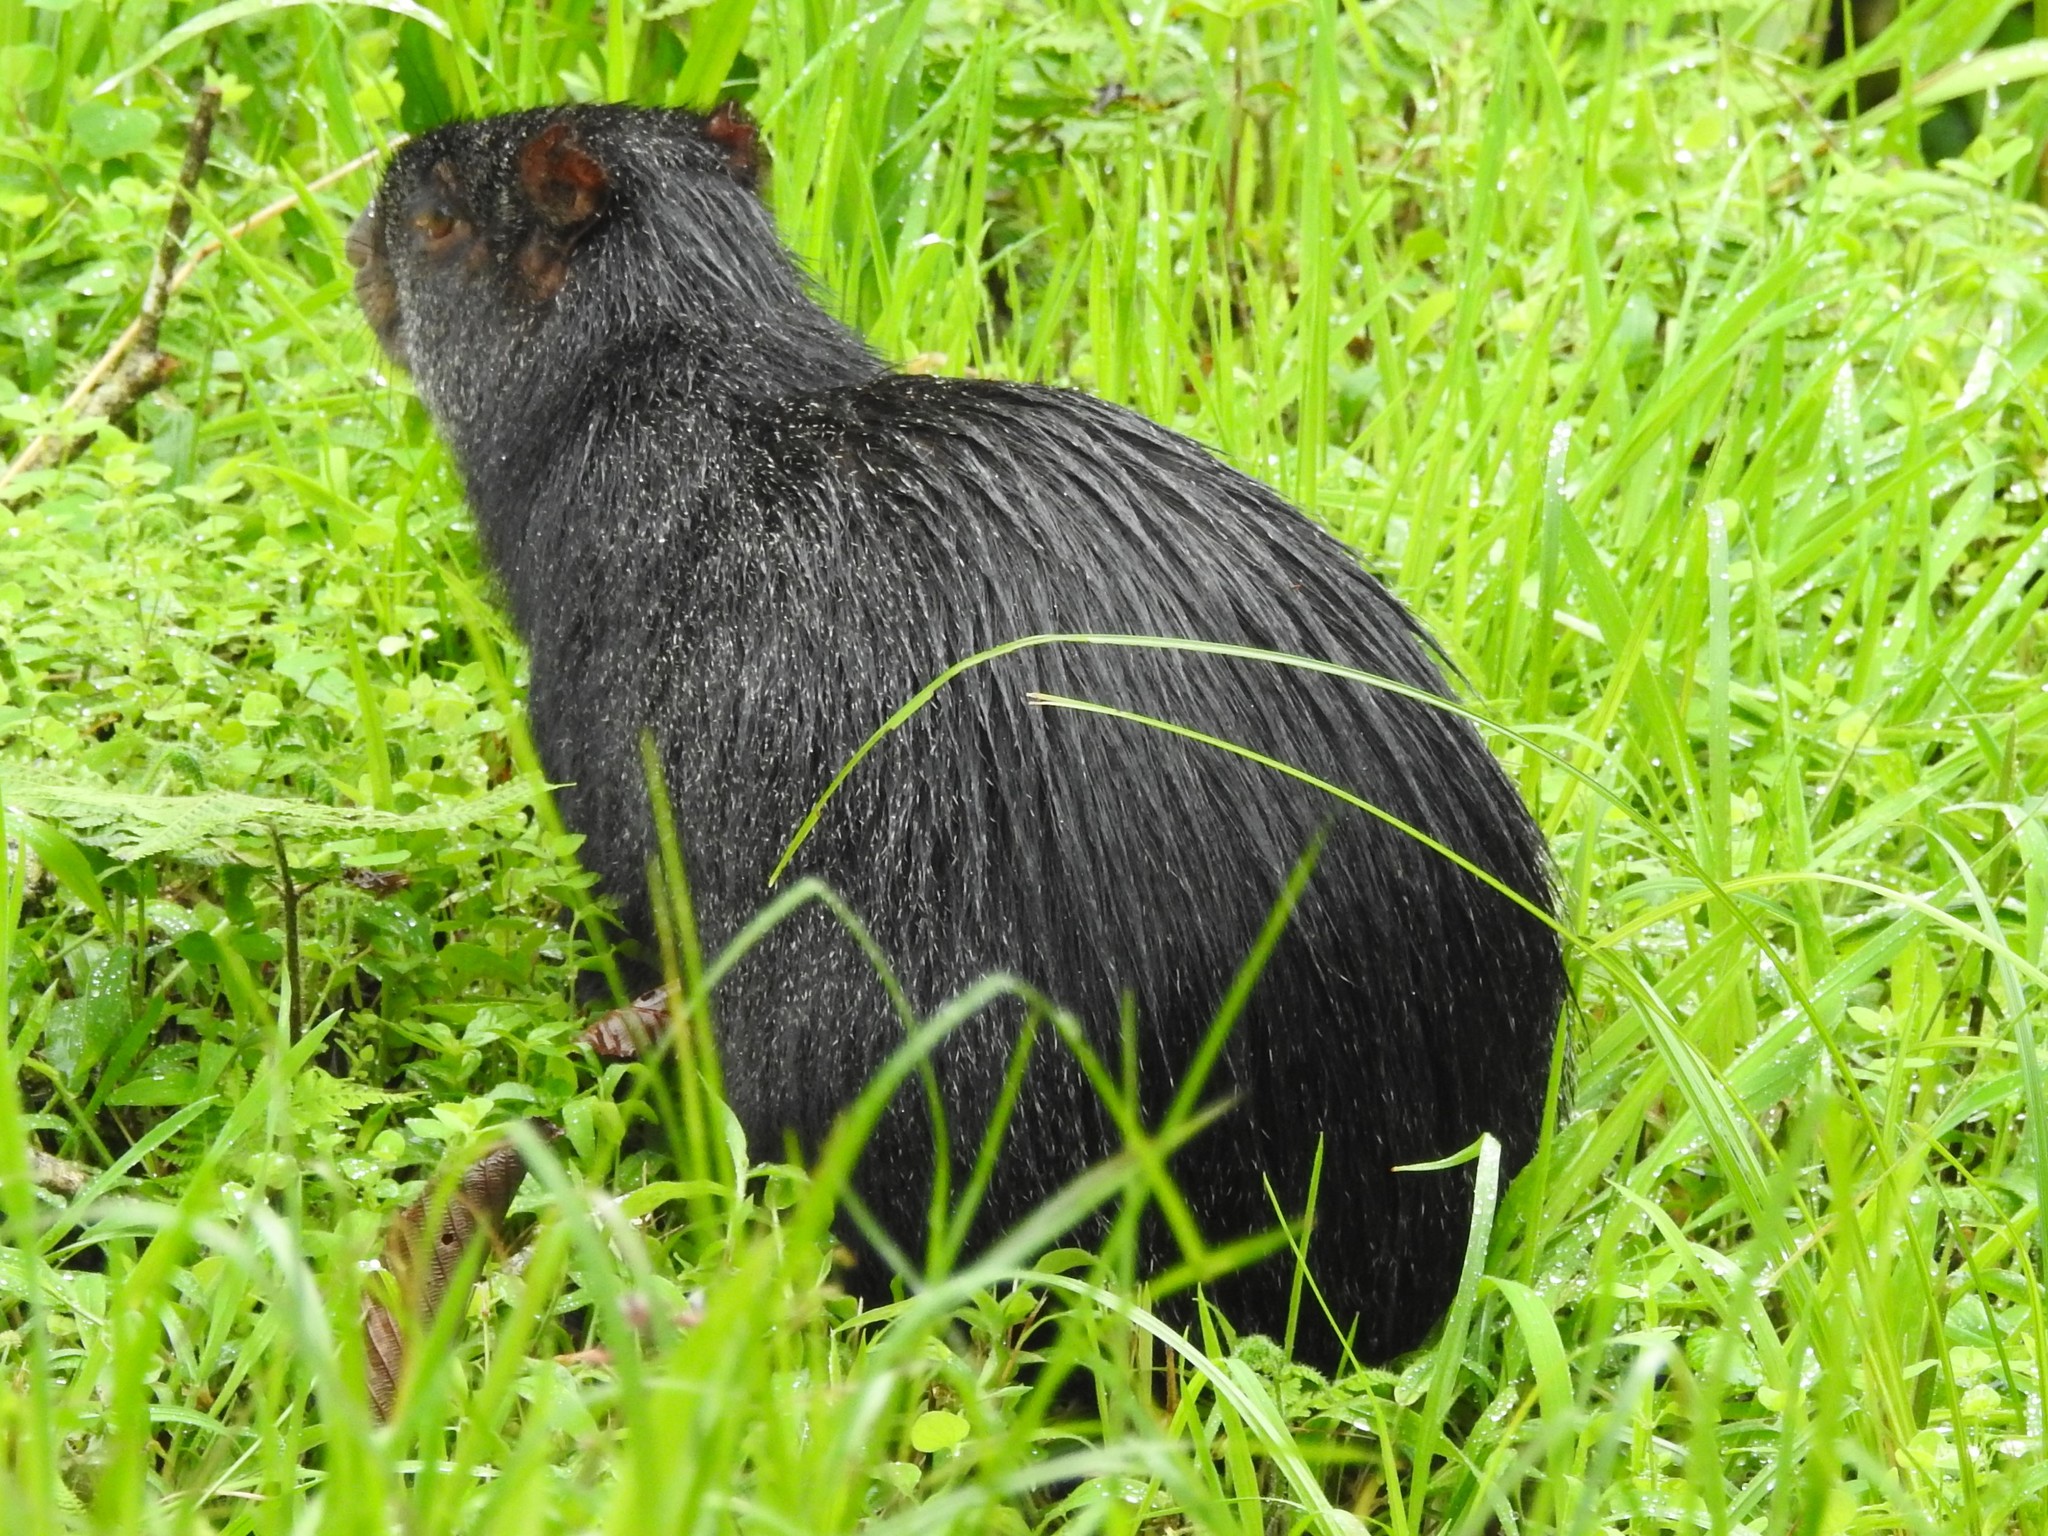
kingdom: Animalia
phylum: Chordata
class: Mammalia
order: Rodentia
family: Dasyproctidae
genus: Dasyprocta
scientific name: Dasyprocta fuliginosa
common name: Black agouti
